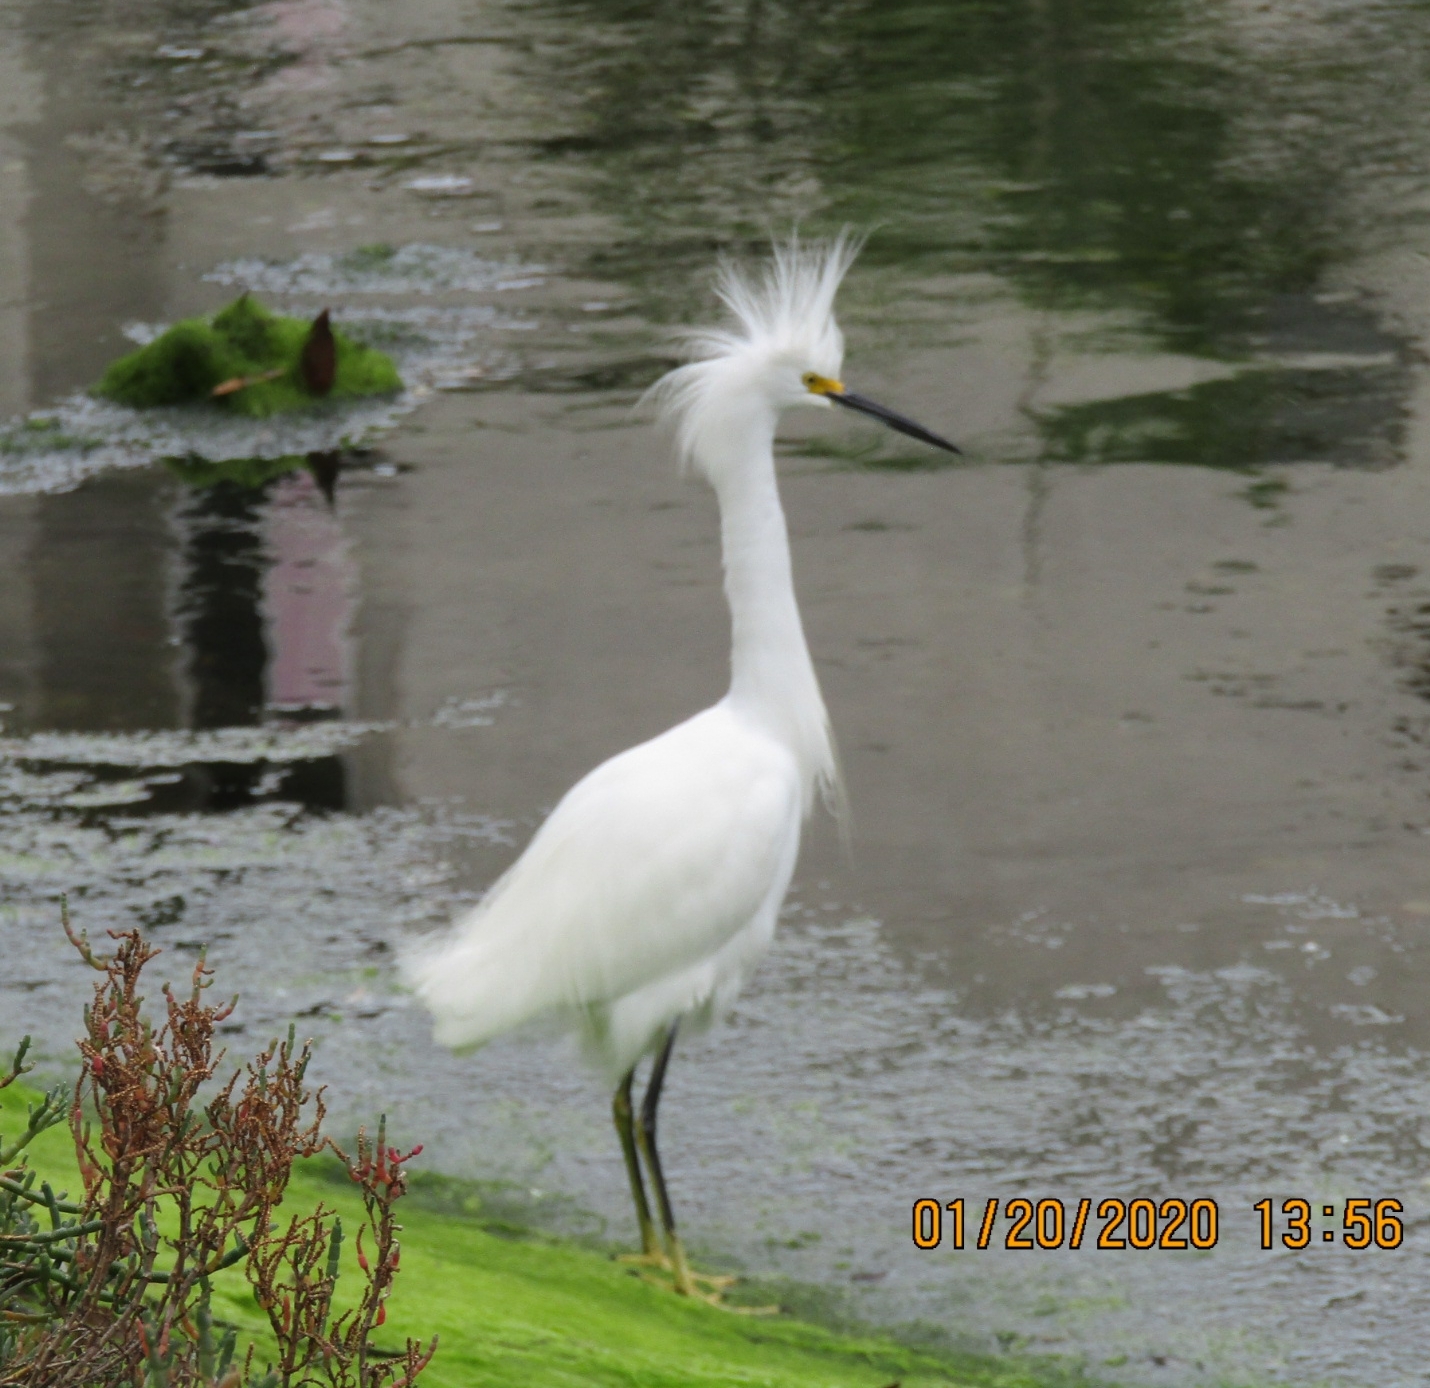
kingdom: Animalia
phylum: Chordata
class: Aves
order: Pelecaniformes
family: Ardeidae
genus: Egretta
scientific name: Egretta thula
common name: Snowy egret
